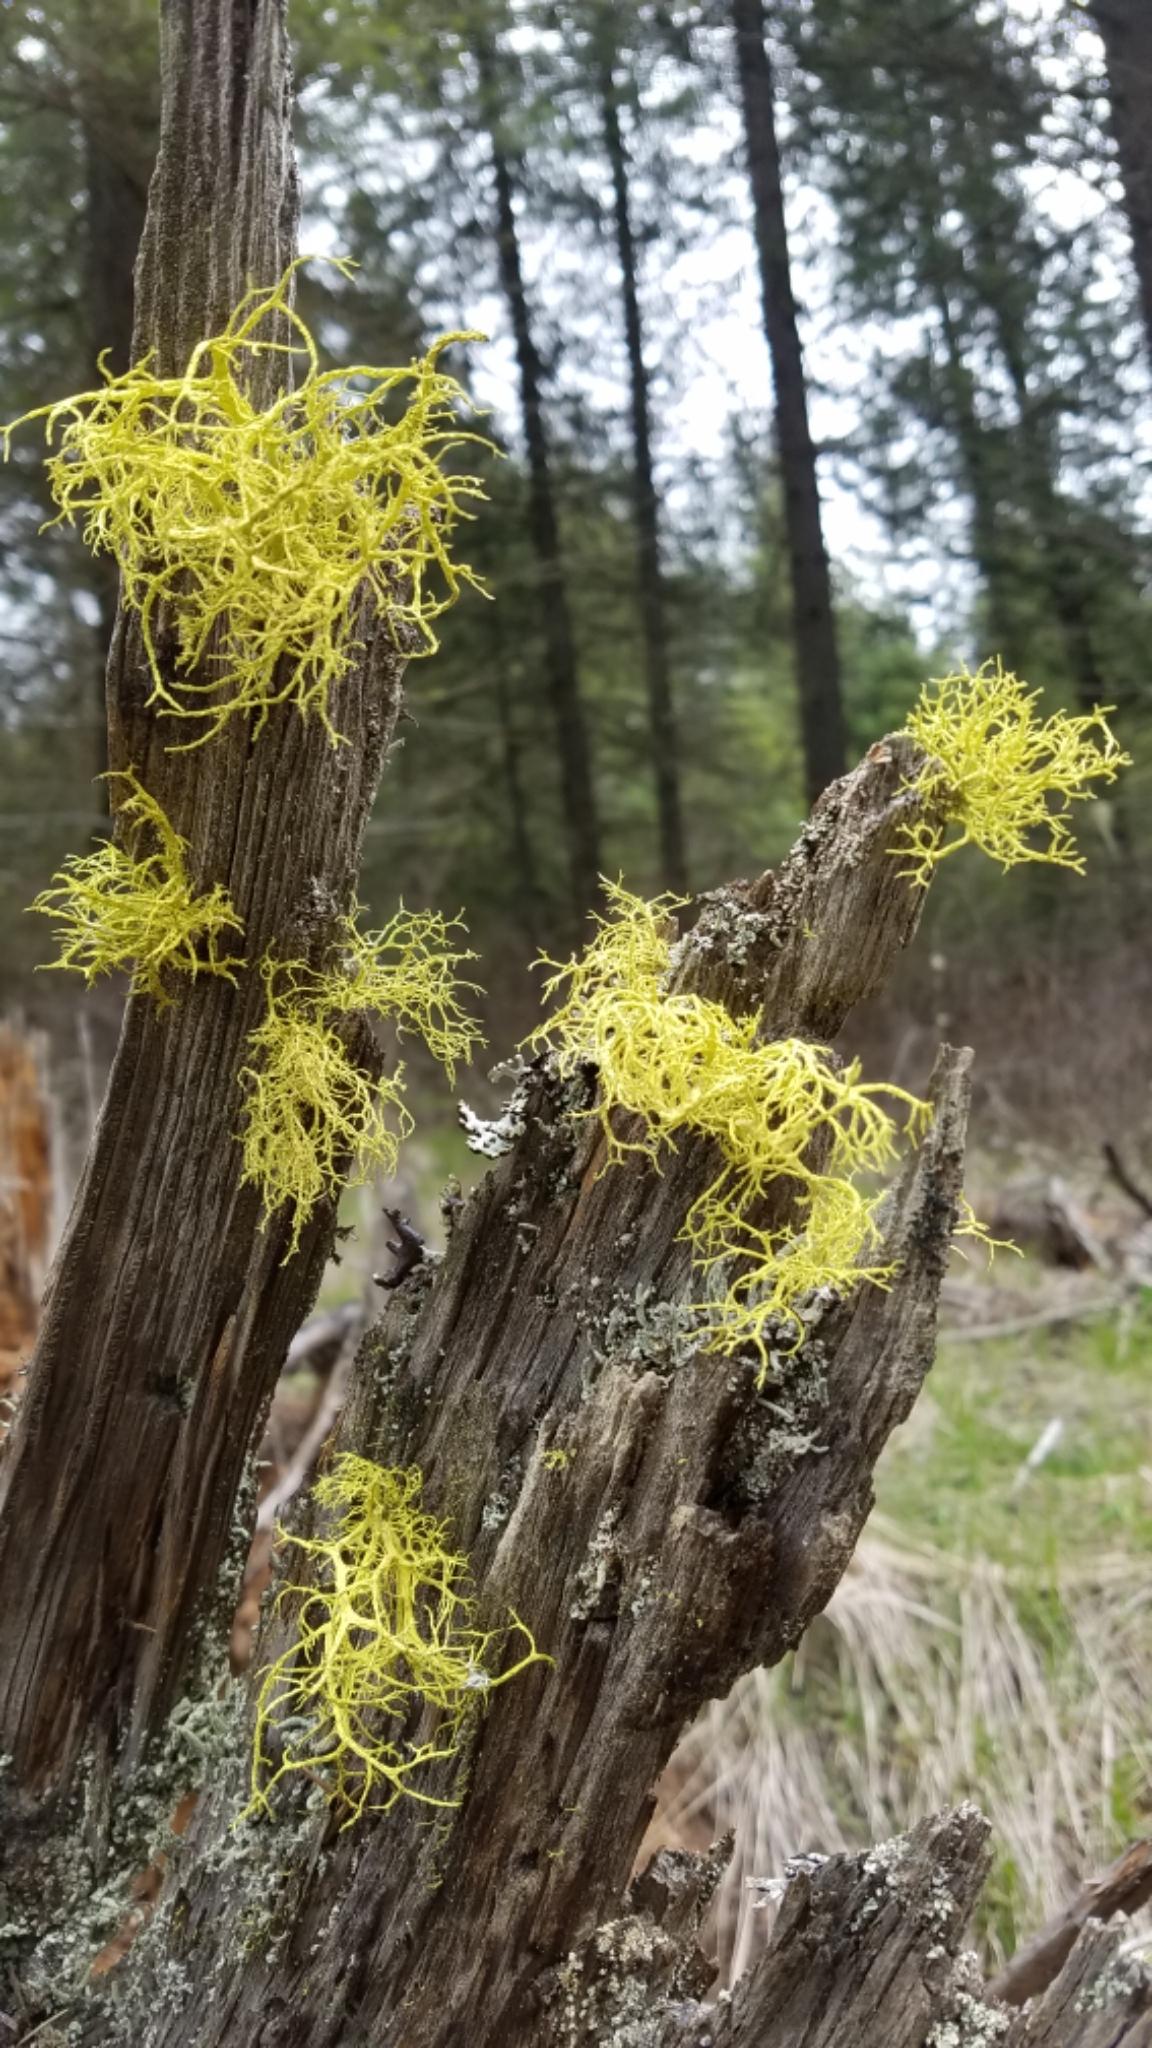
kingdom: Fungi
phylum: Ascomycota
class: Lecanoromycetes
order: Lecanorales
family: Parmeliaceae
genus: Letharia
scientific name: Letharia vulpina
